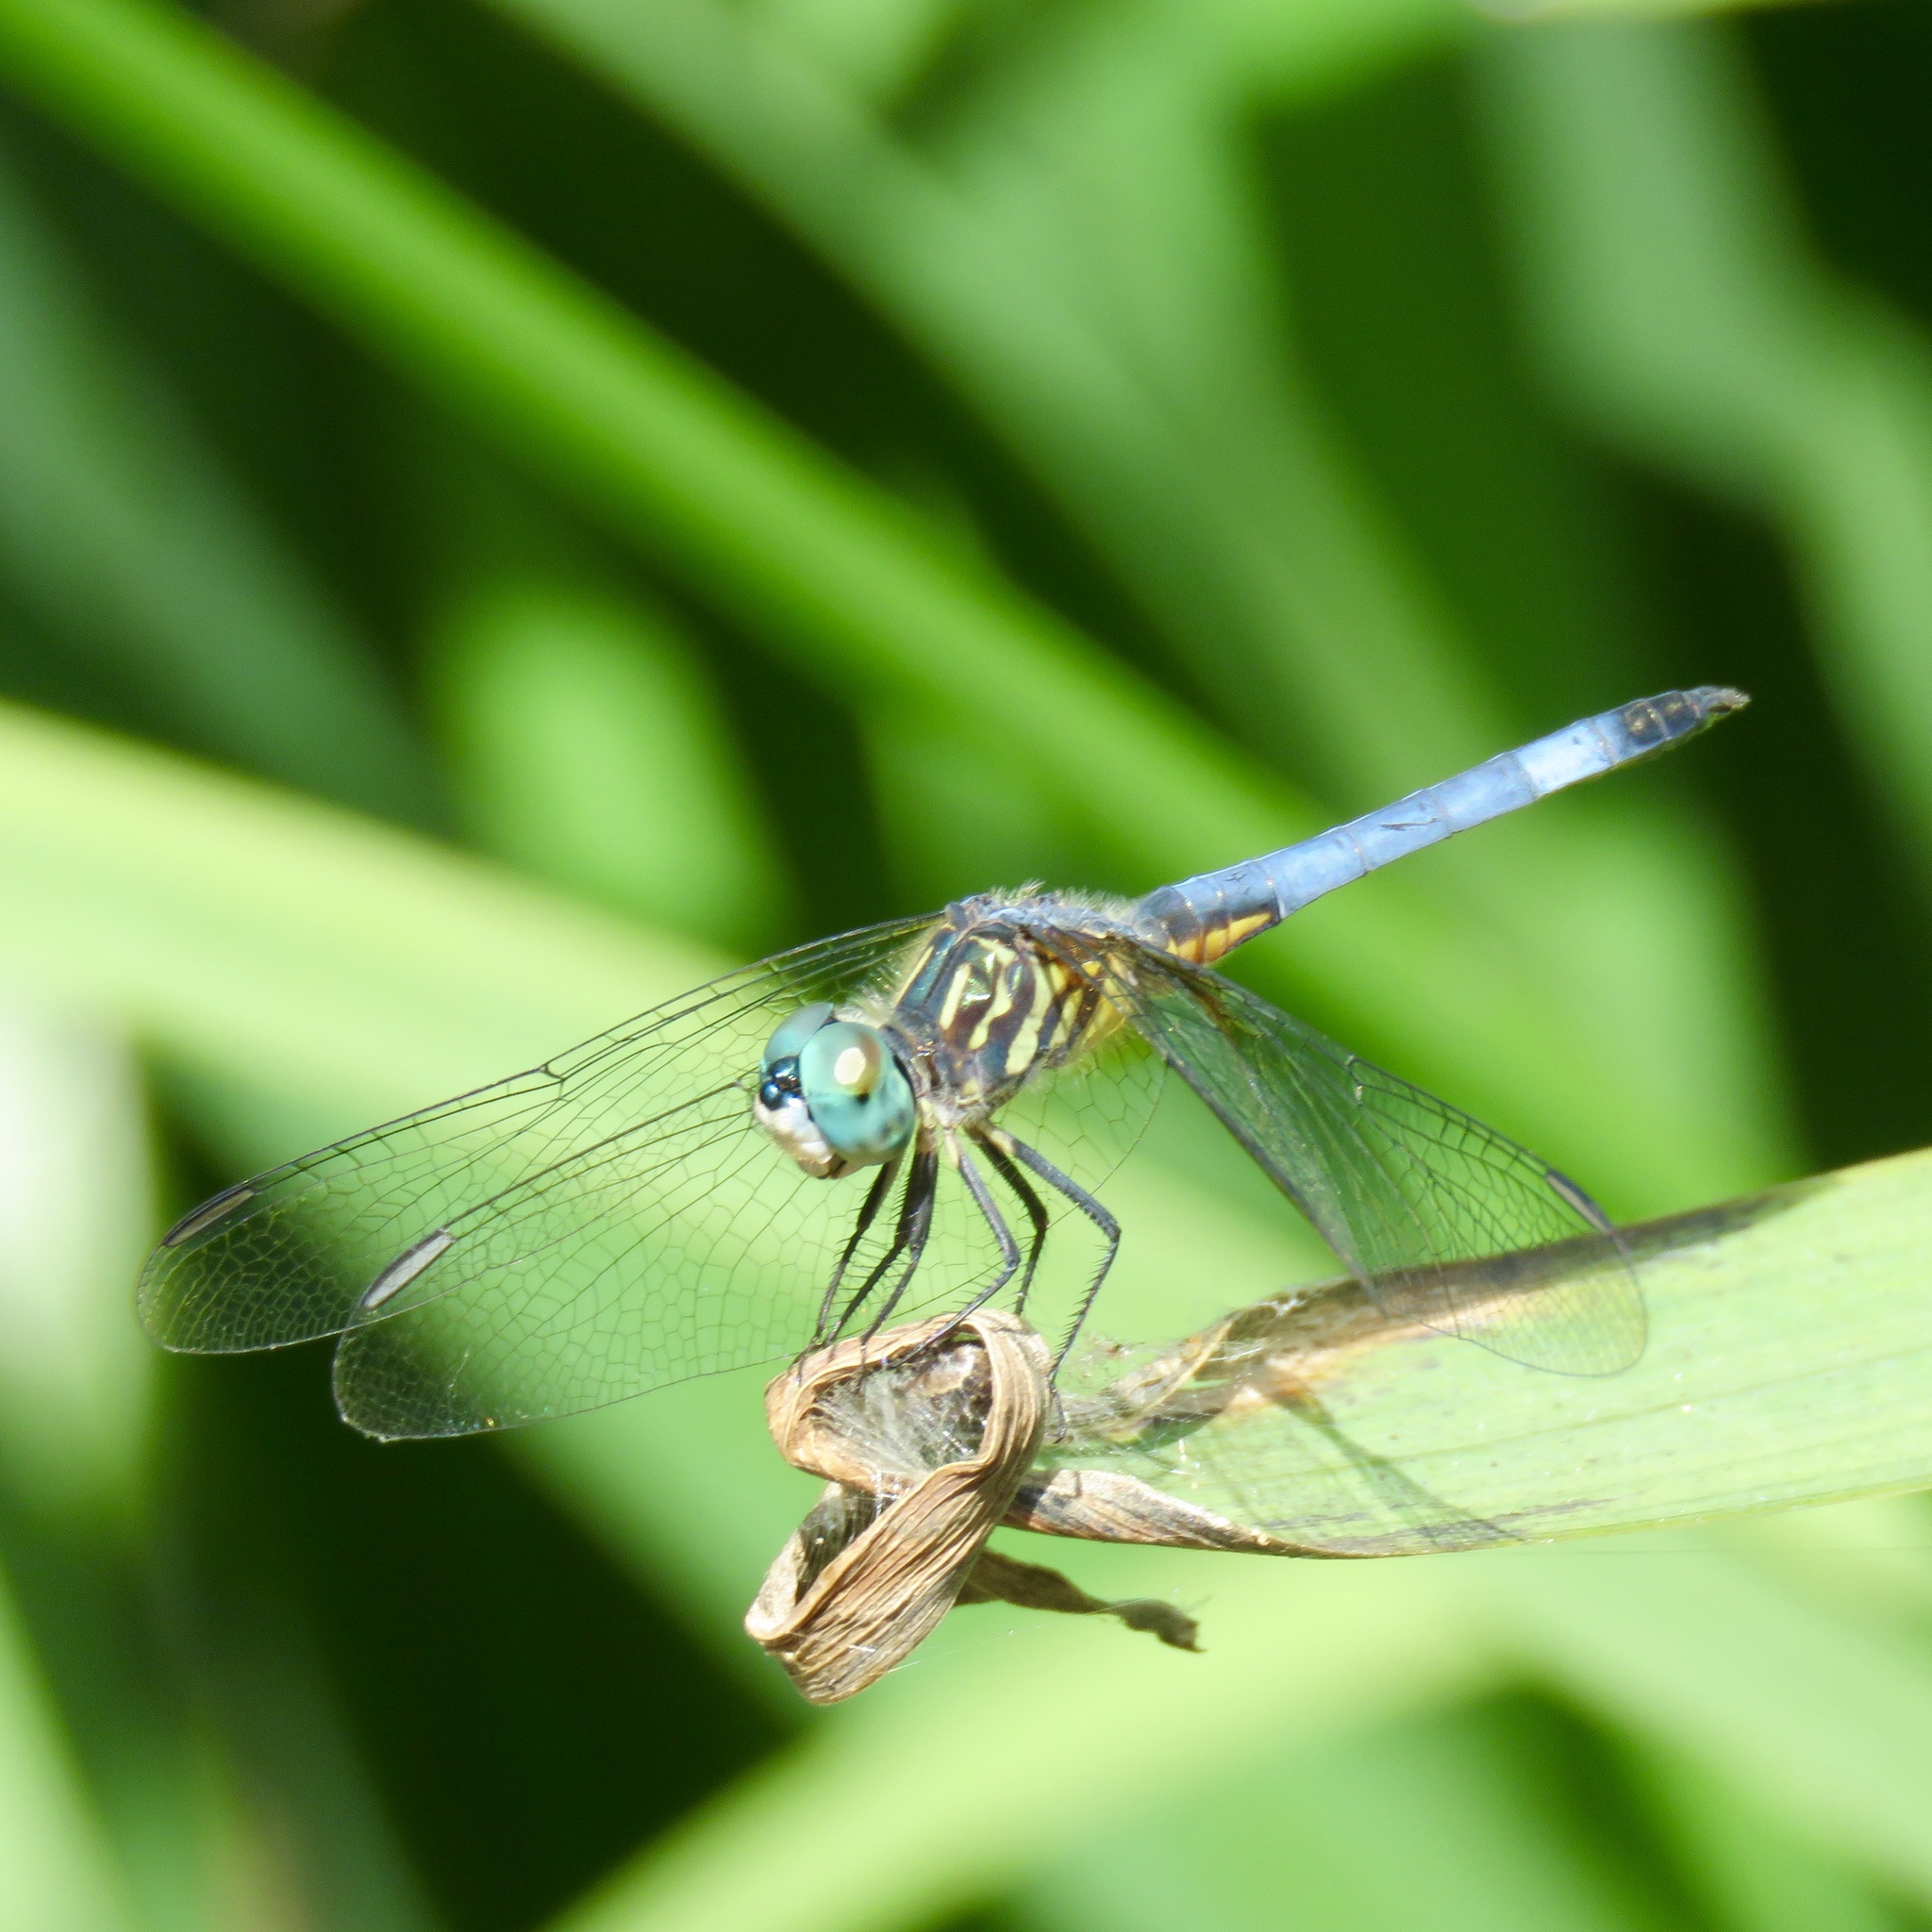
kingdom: Animalia
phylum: Arthropoda
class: Insecta
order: Odonata
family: Libellulidae
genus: Pachydiplax
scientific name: Pachydiplax longipennis
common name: Blue dasher
